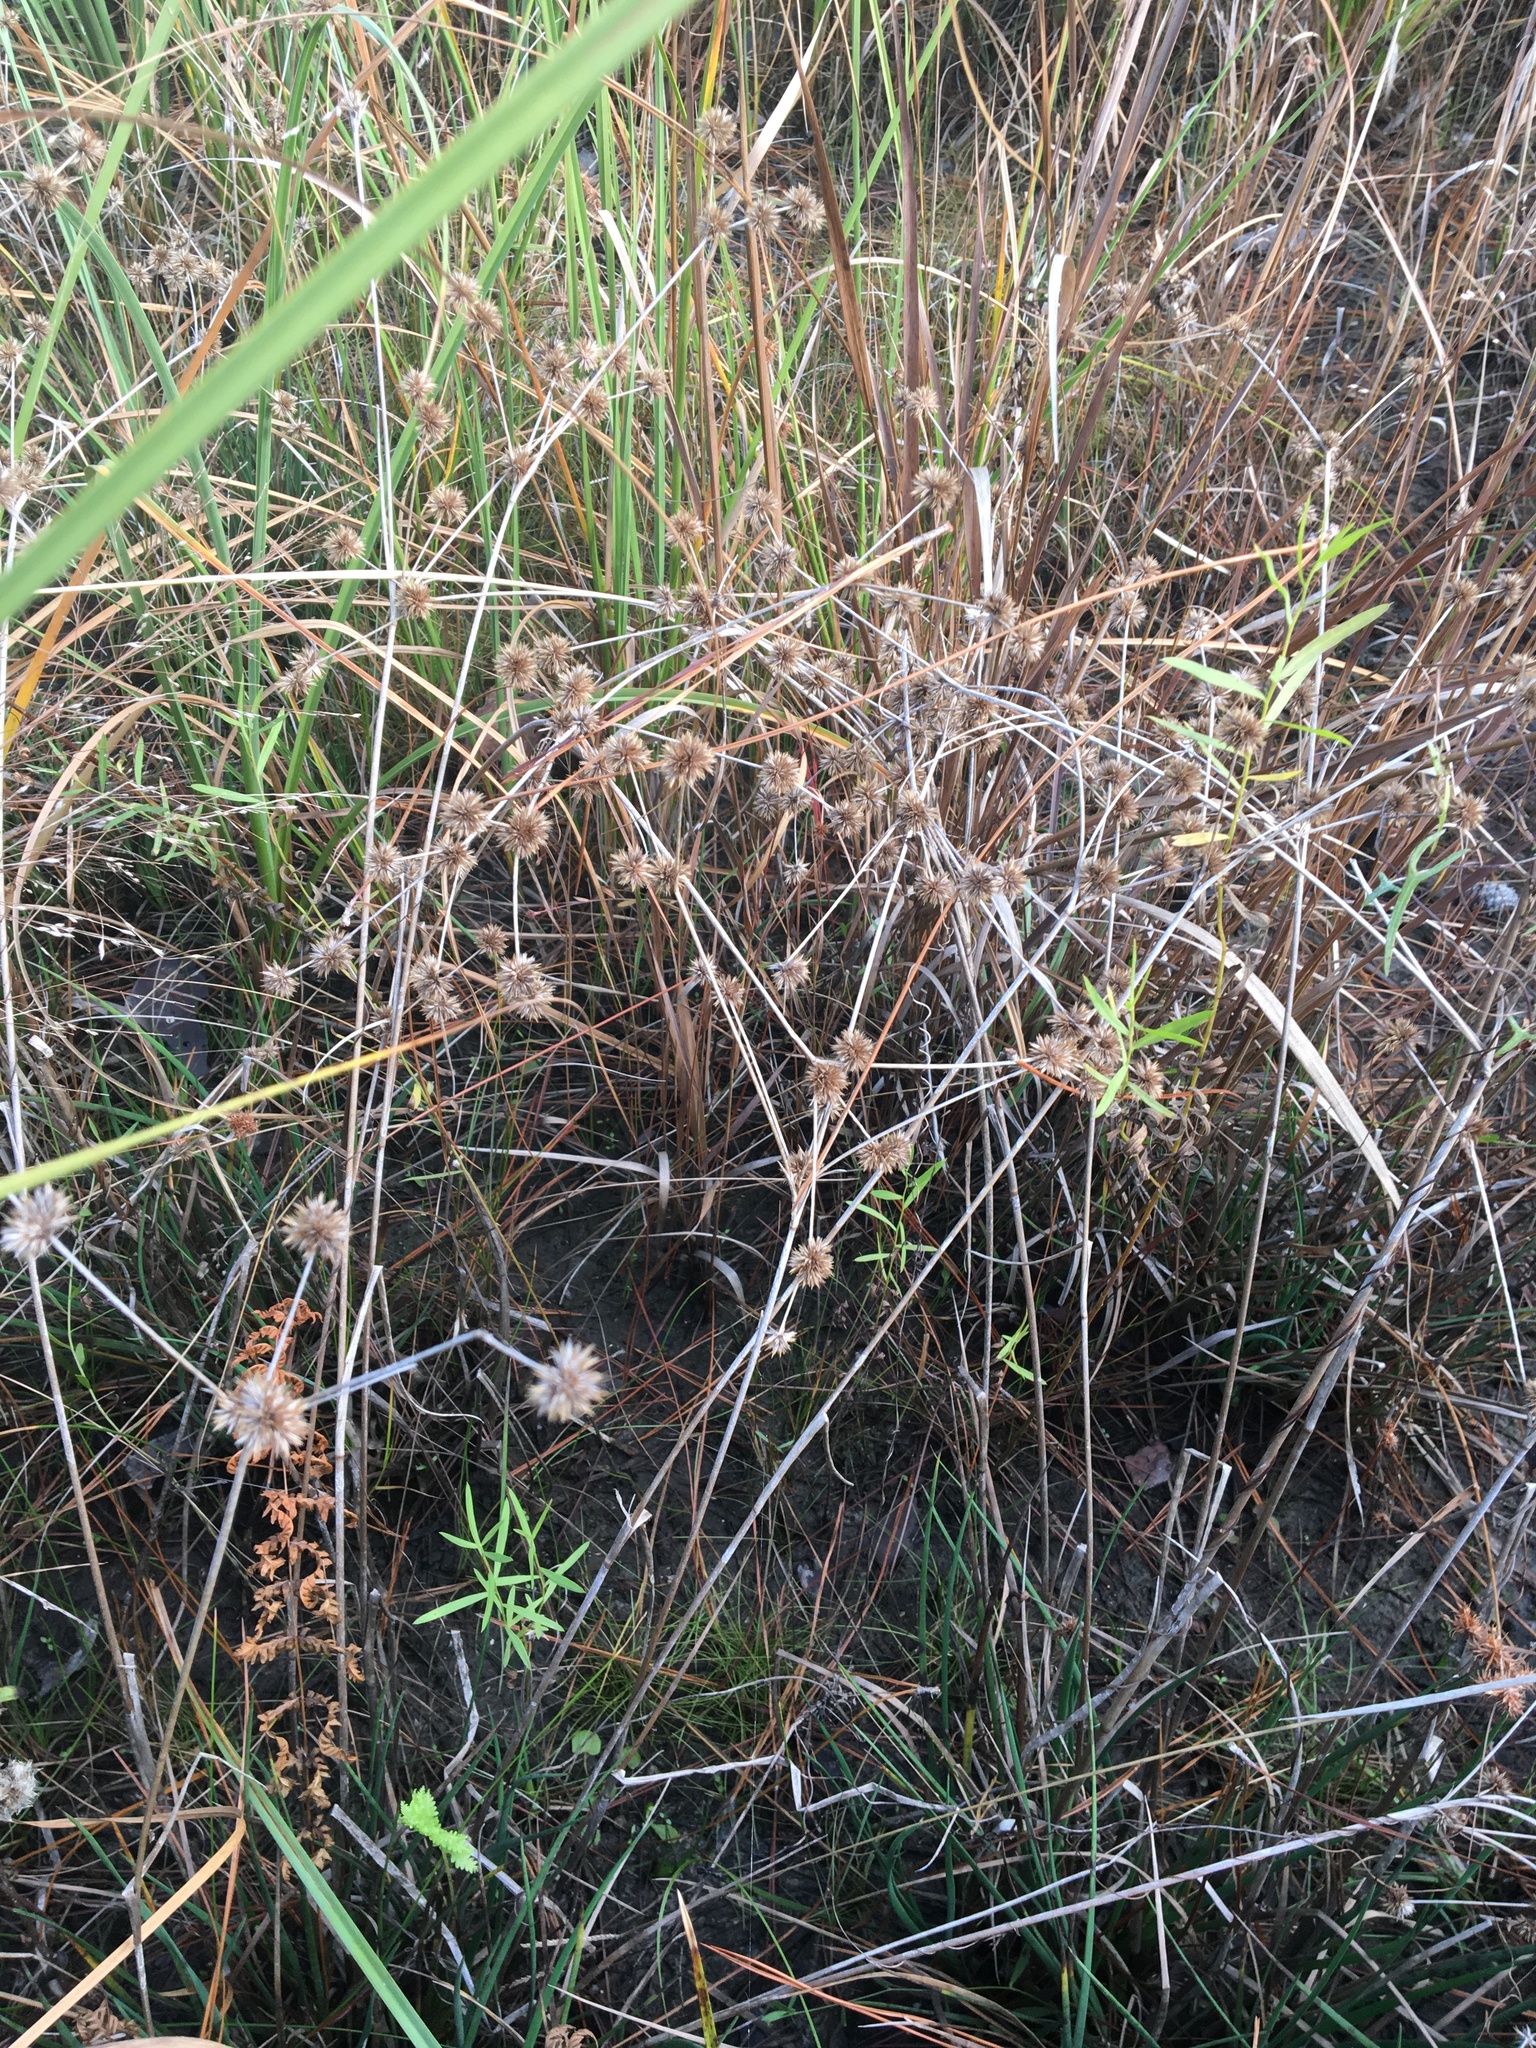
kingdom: Plantae
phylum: Tracheophyta
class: Liliopsida
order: Poales
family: Juncaceae
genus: Juncus
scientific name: Juncus validus
